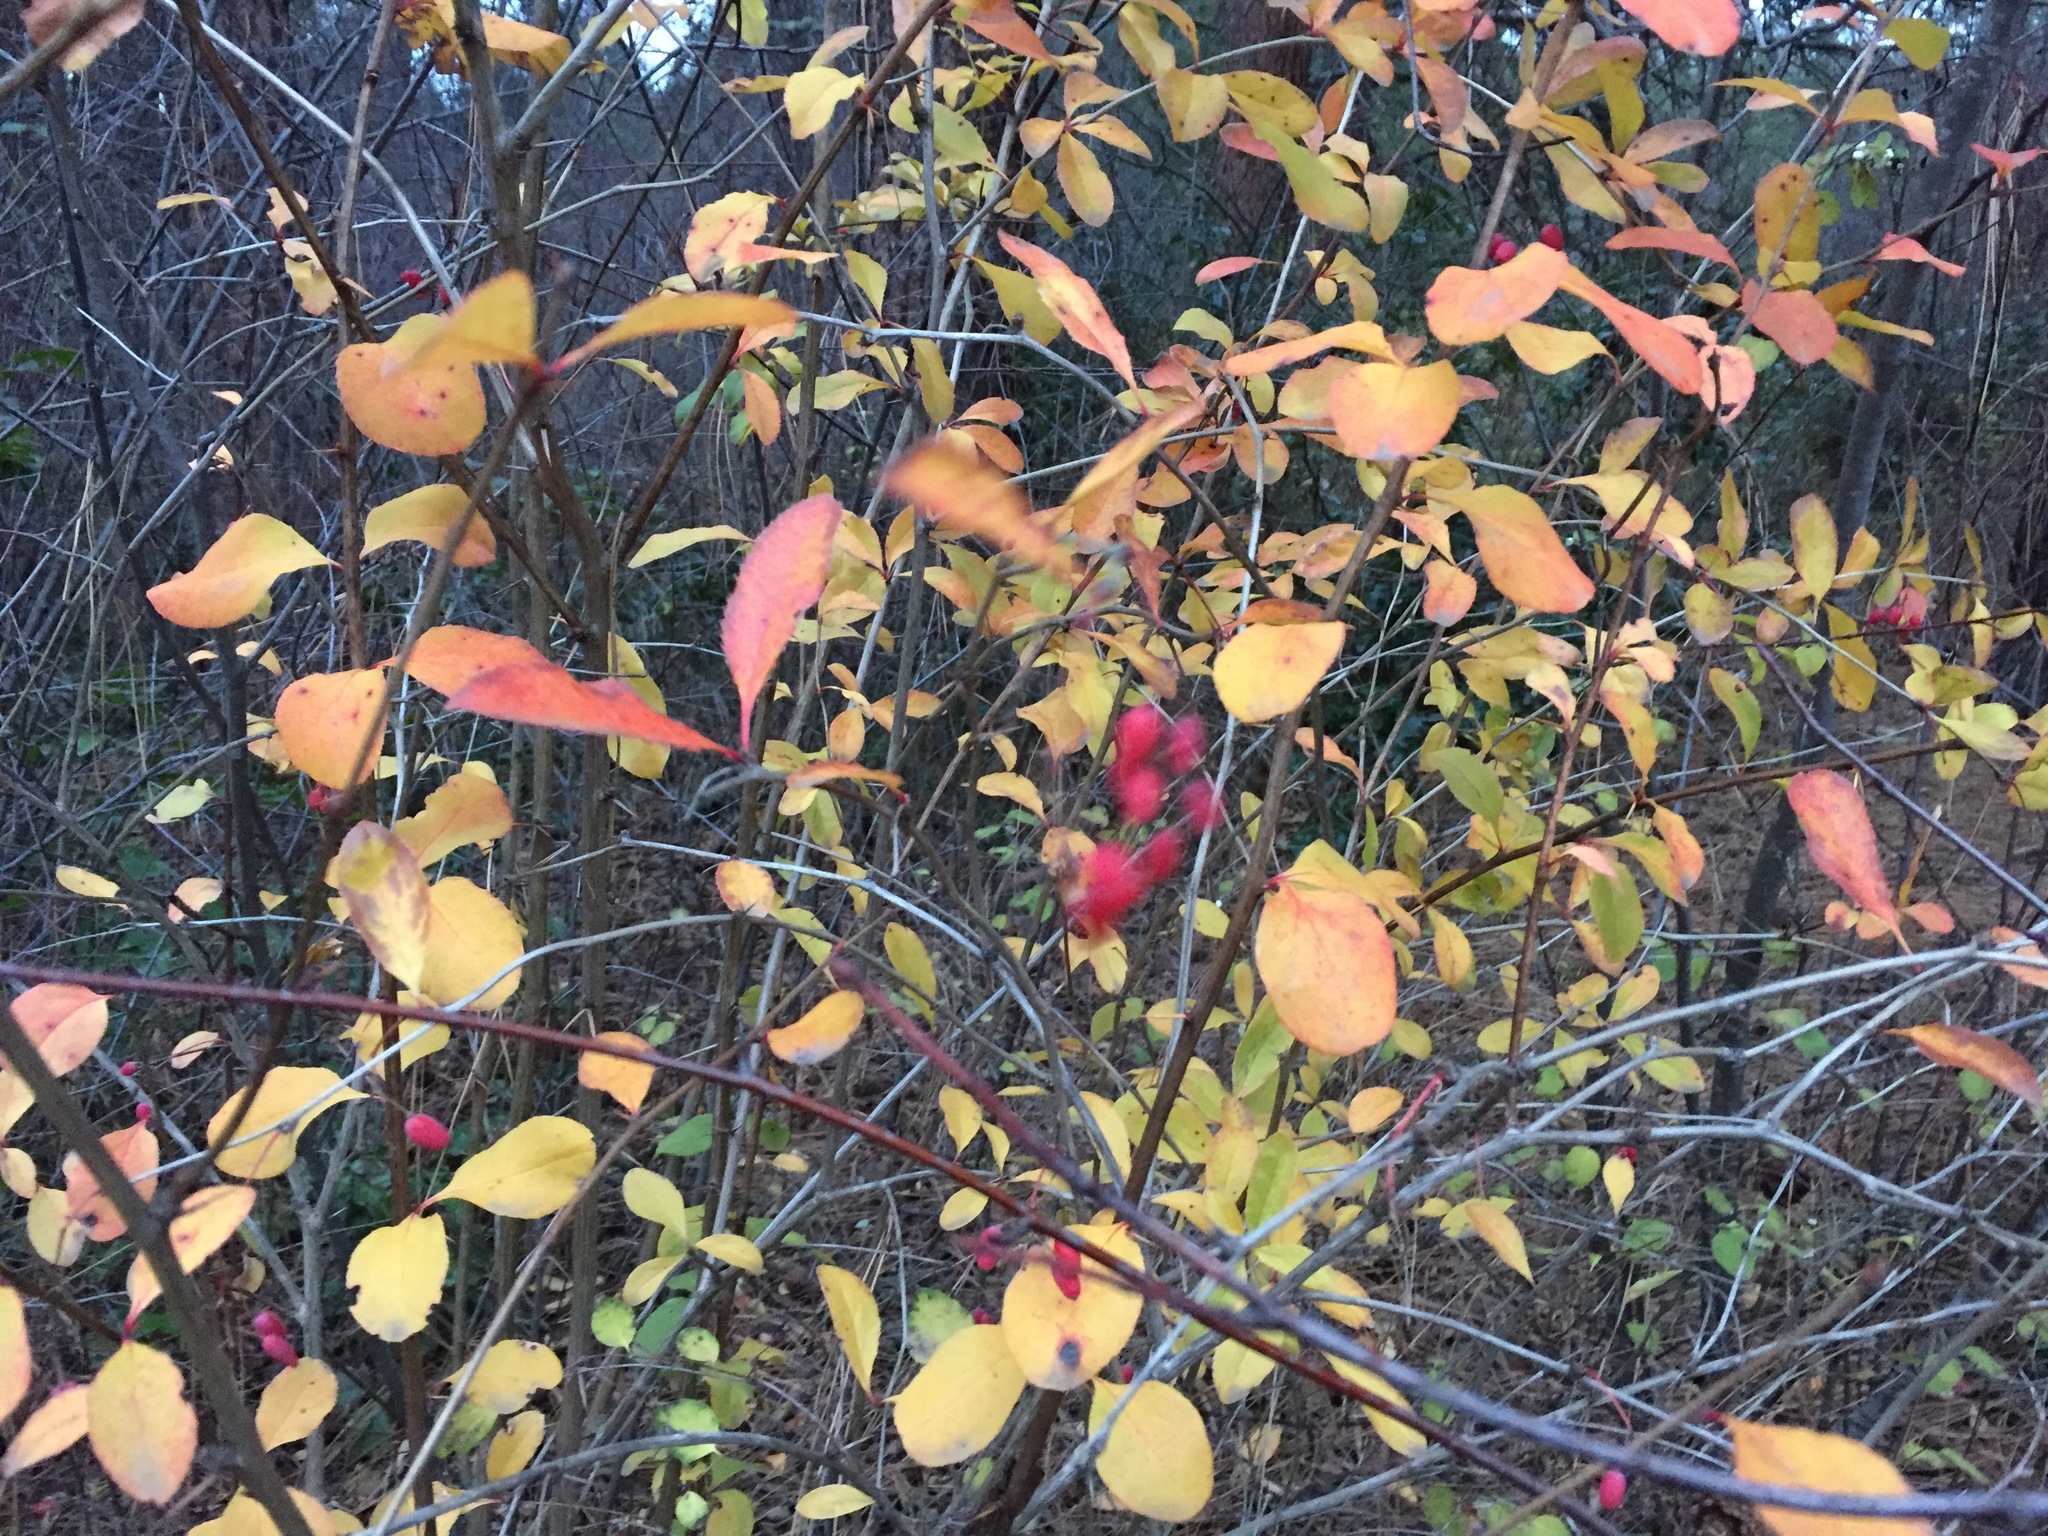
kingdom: Plantae
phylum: Tracheophyta
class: Magnoliopsida
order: Ranunculales
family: Berberidaceae
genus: Berberis
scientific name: Berberis vulgaris
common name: Barberry
